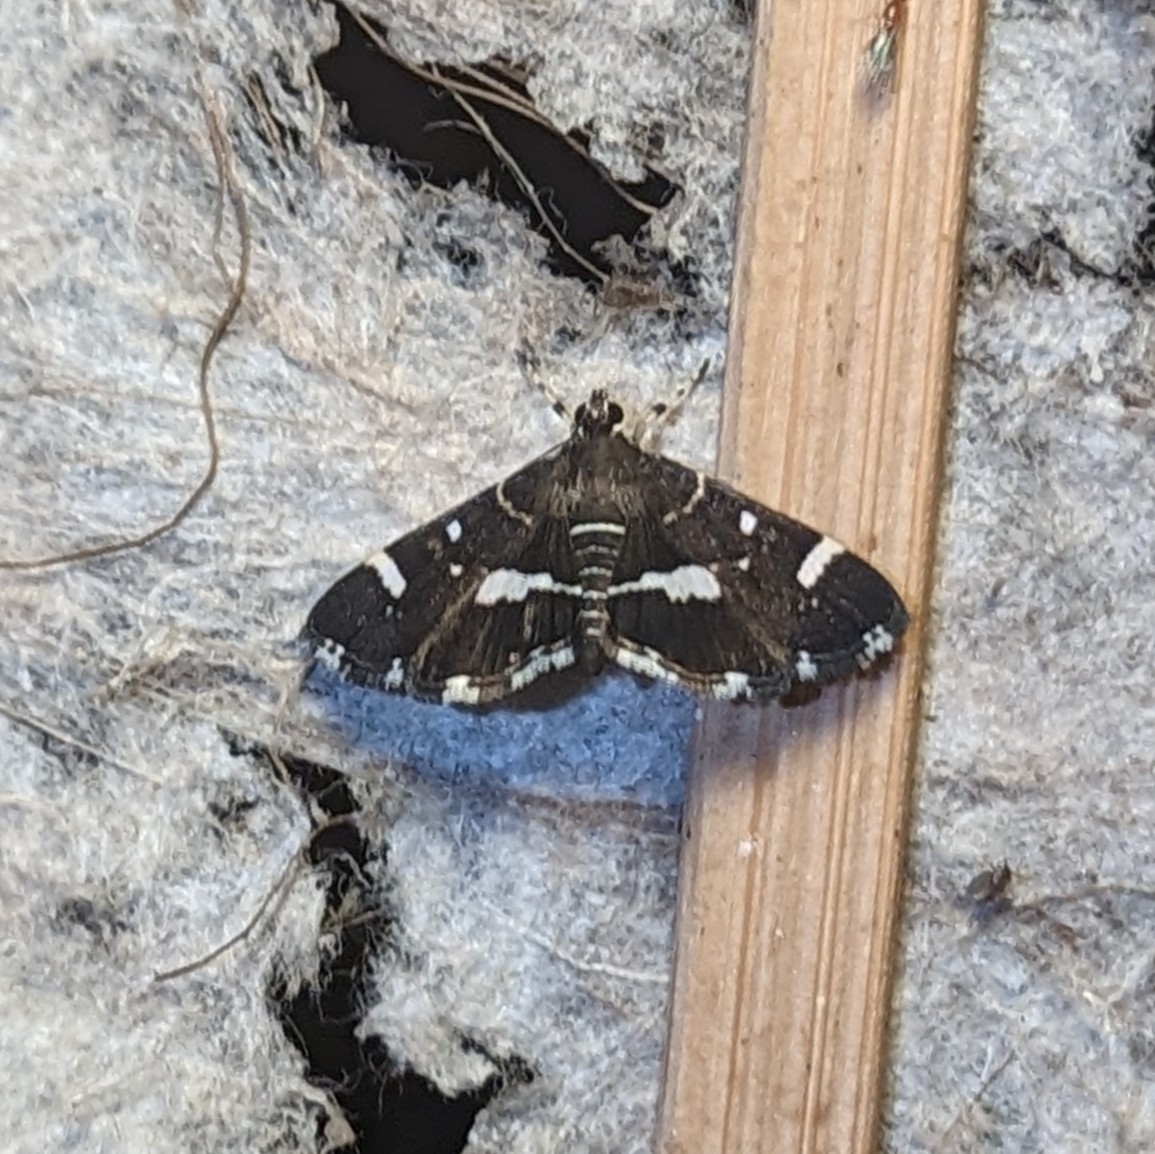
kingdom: Animalia
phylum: Arthropoda
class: Insecta
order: Lepidoptera
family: Crambidae
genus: Hymenia
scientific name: Hymenia perspectalis
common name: Spotted beet webworm
